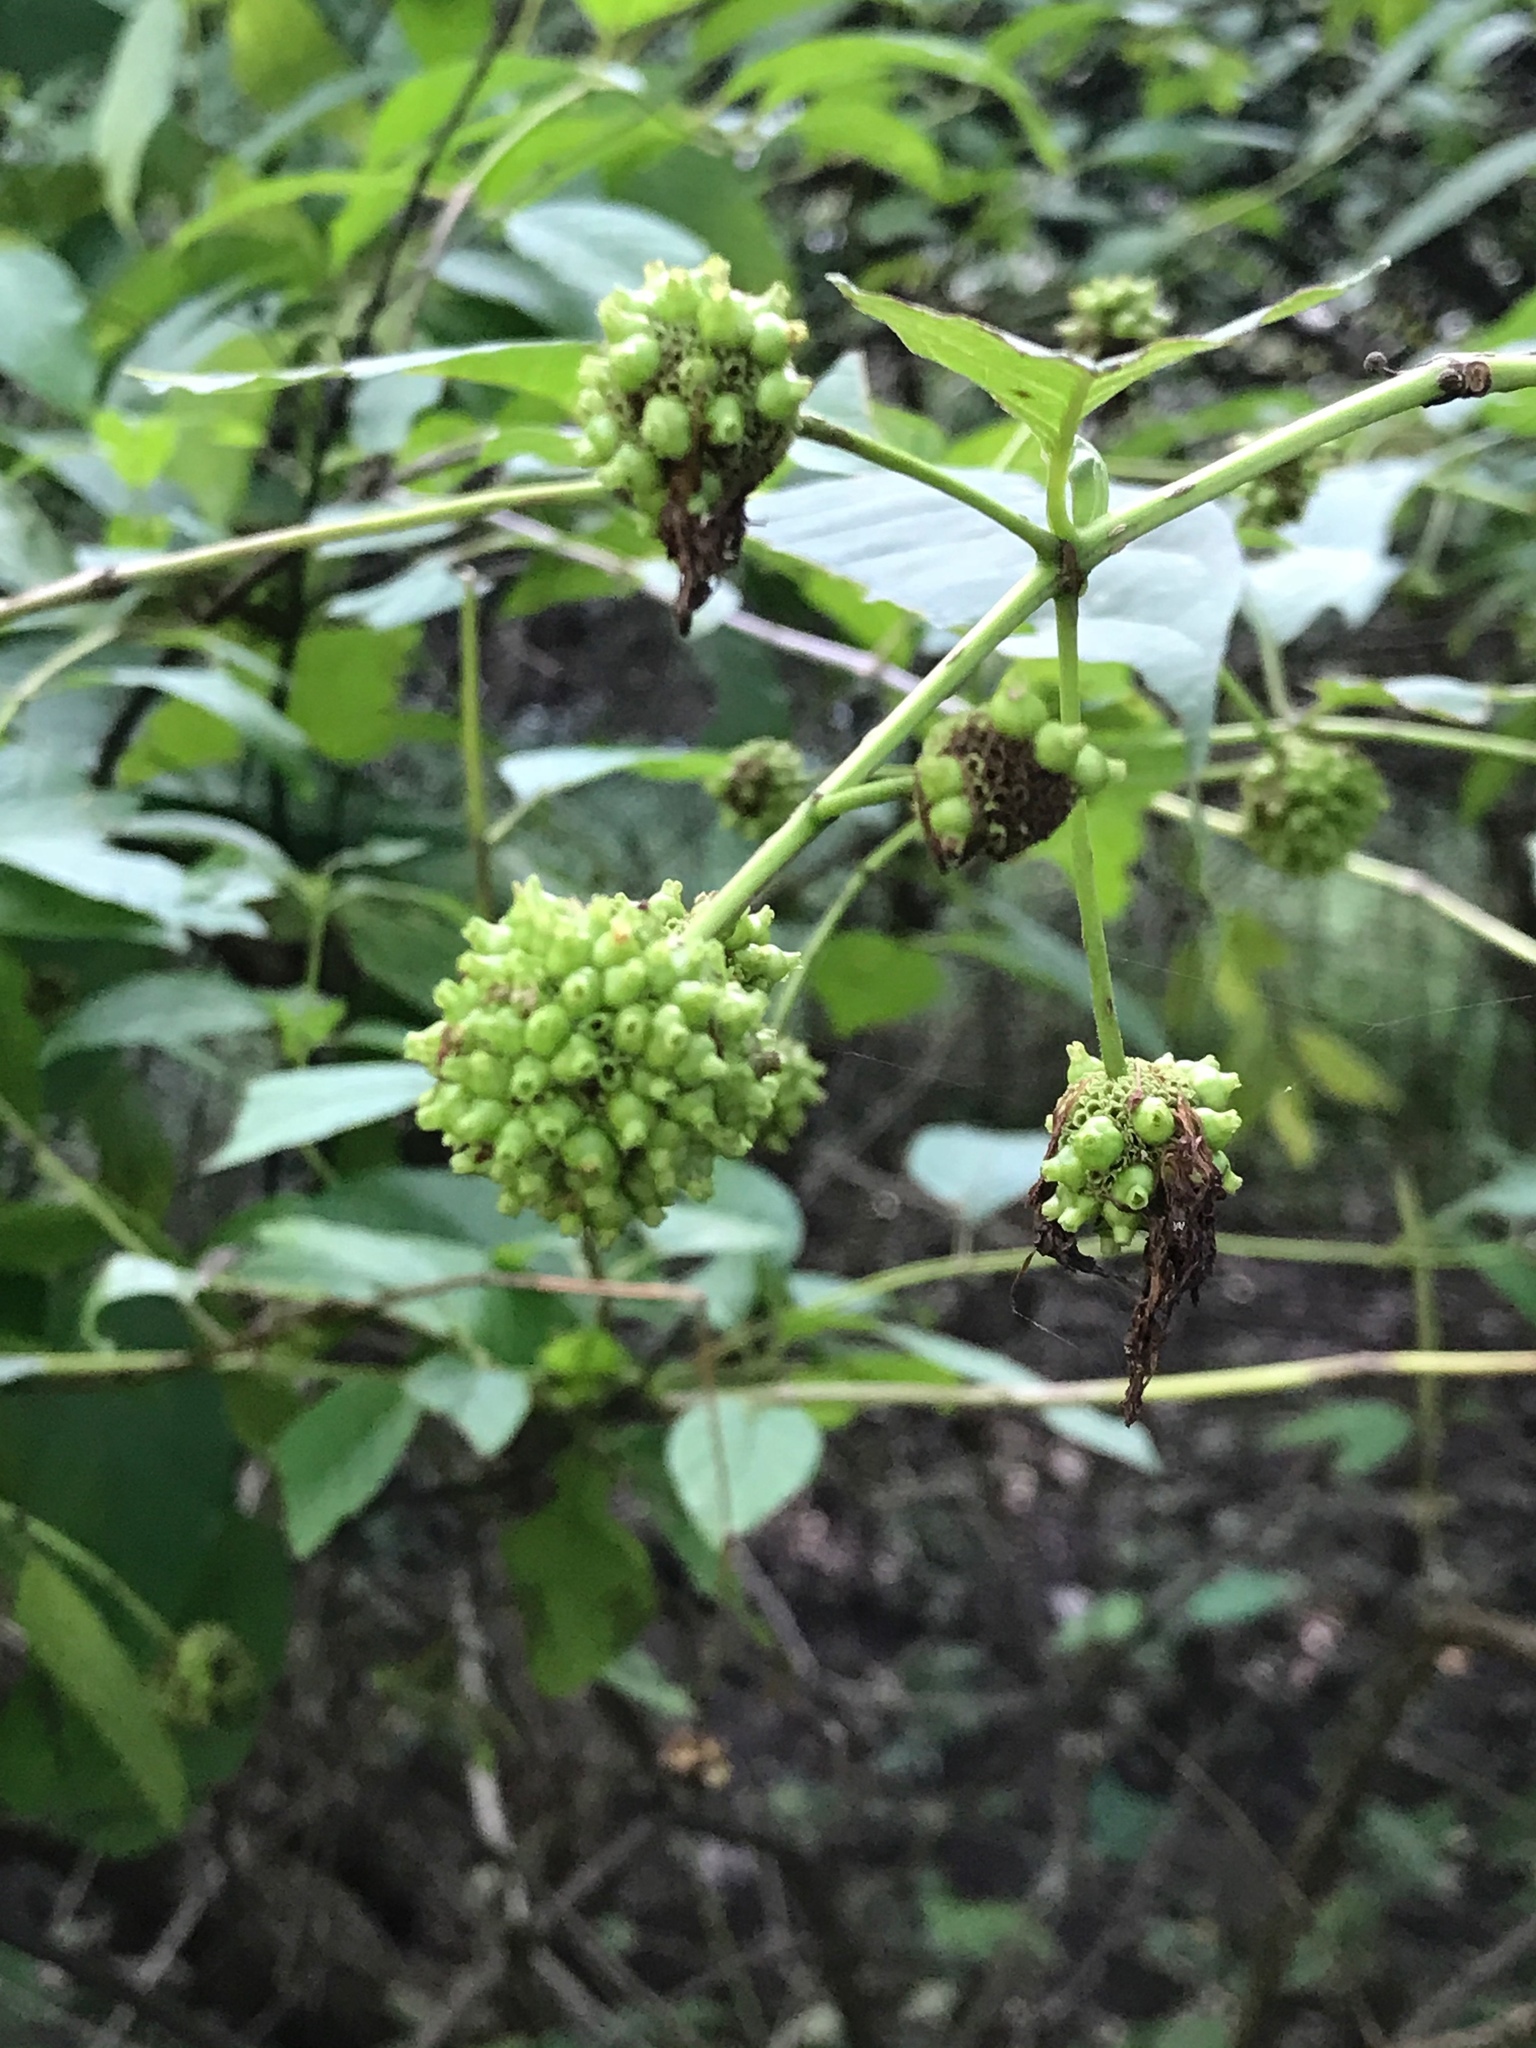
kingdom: Plantae
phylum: Tracheophyta
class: Magnoliopsida
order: Gentianales
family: Rubiaceae
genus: Cephalanthus
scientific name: Cephalanthus occidentalis
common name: Button-willow
